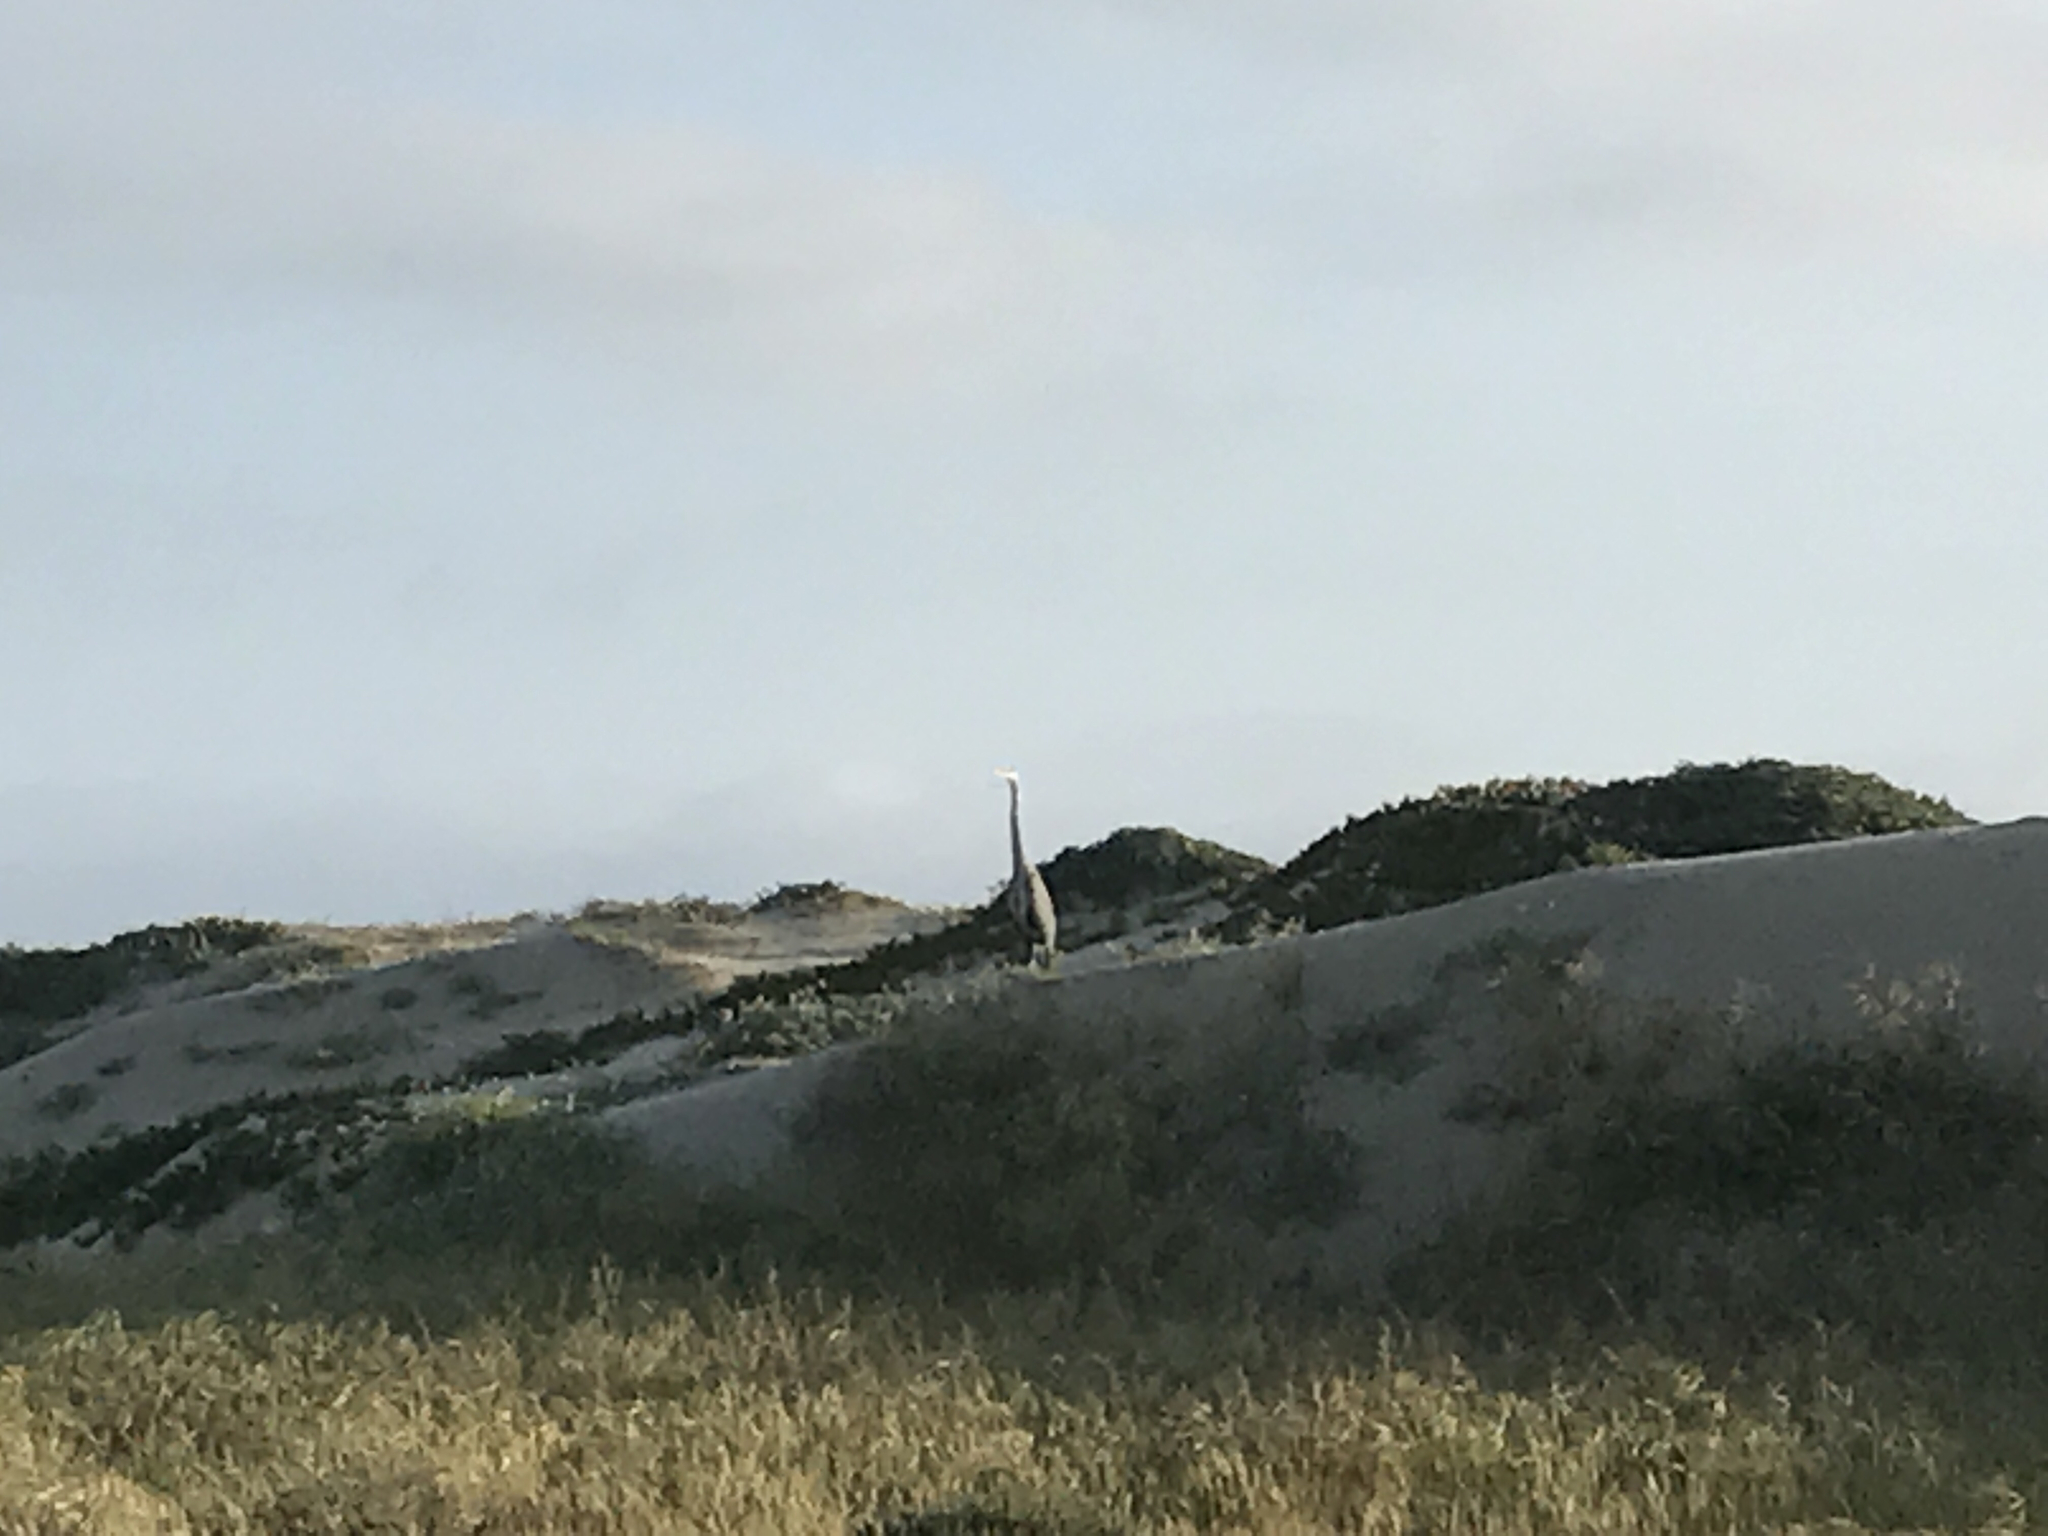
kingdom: Animalia
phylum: Chordata
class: Aves
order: Pelecaniformes
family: Ardeidae
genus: Ardea
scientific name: Ardea herodias
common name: Great blue heron
